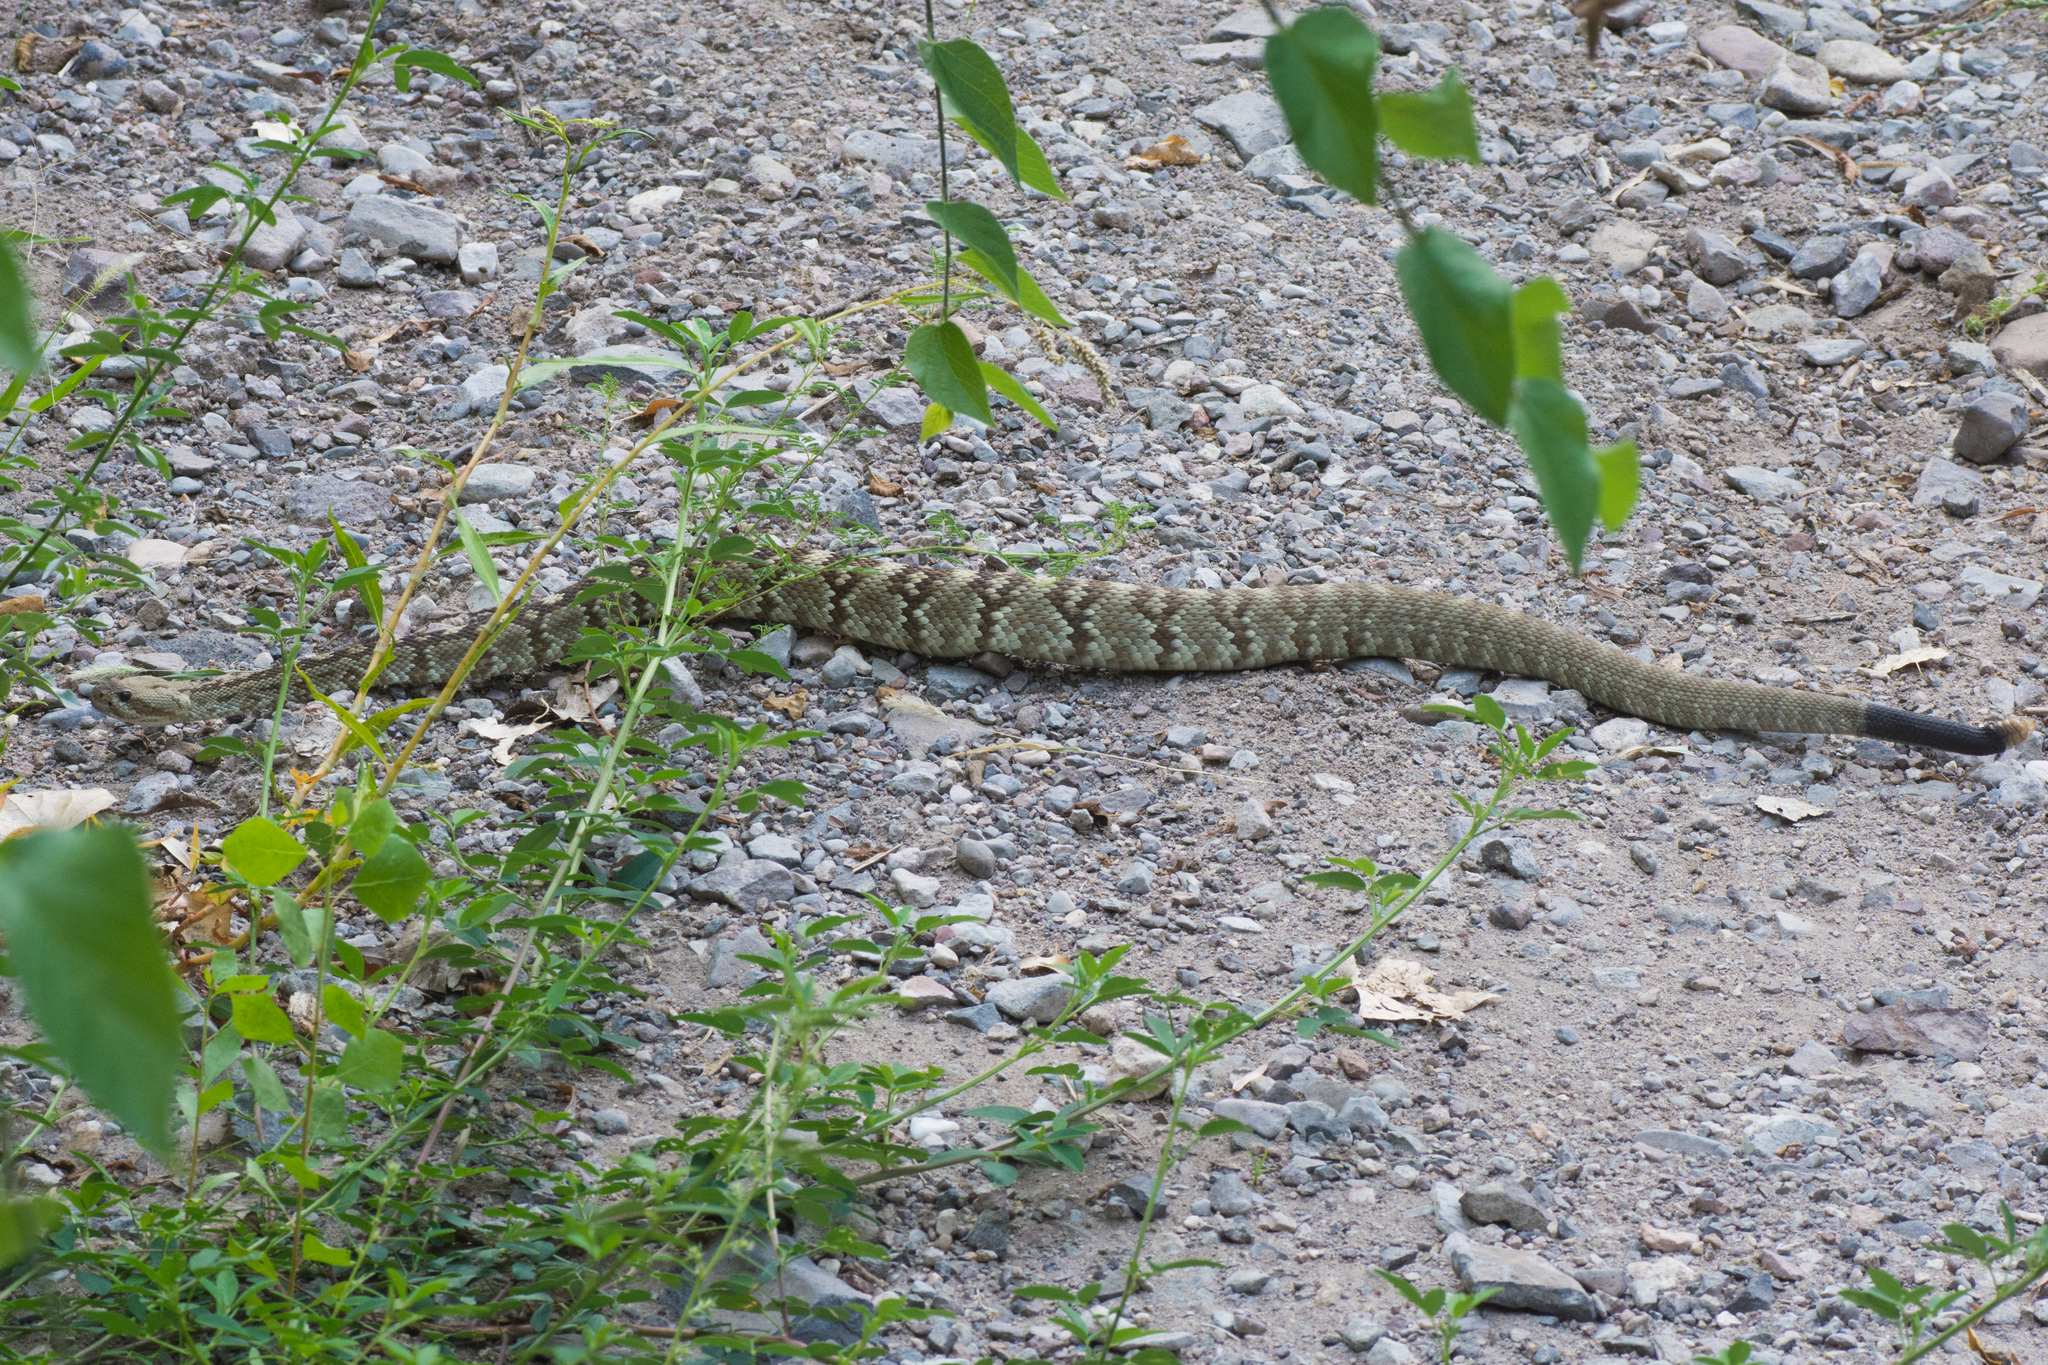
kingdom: Animalia
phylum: Chordata
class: Squamata
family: Viperidae
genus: Crotalus
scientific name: Crotalus ornatus
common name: Black-tailed rattlesnake
